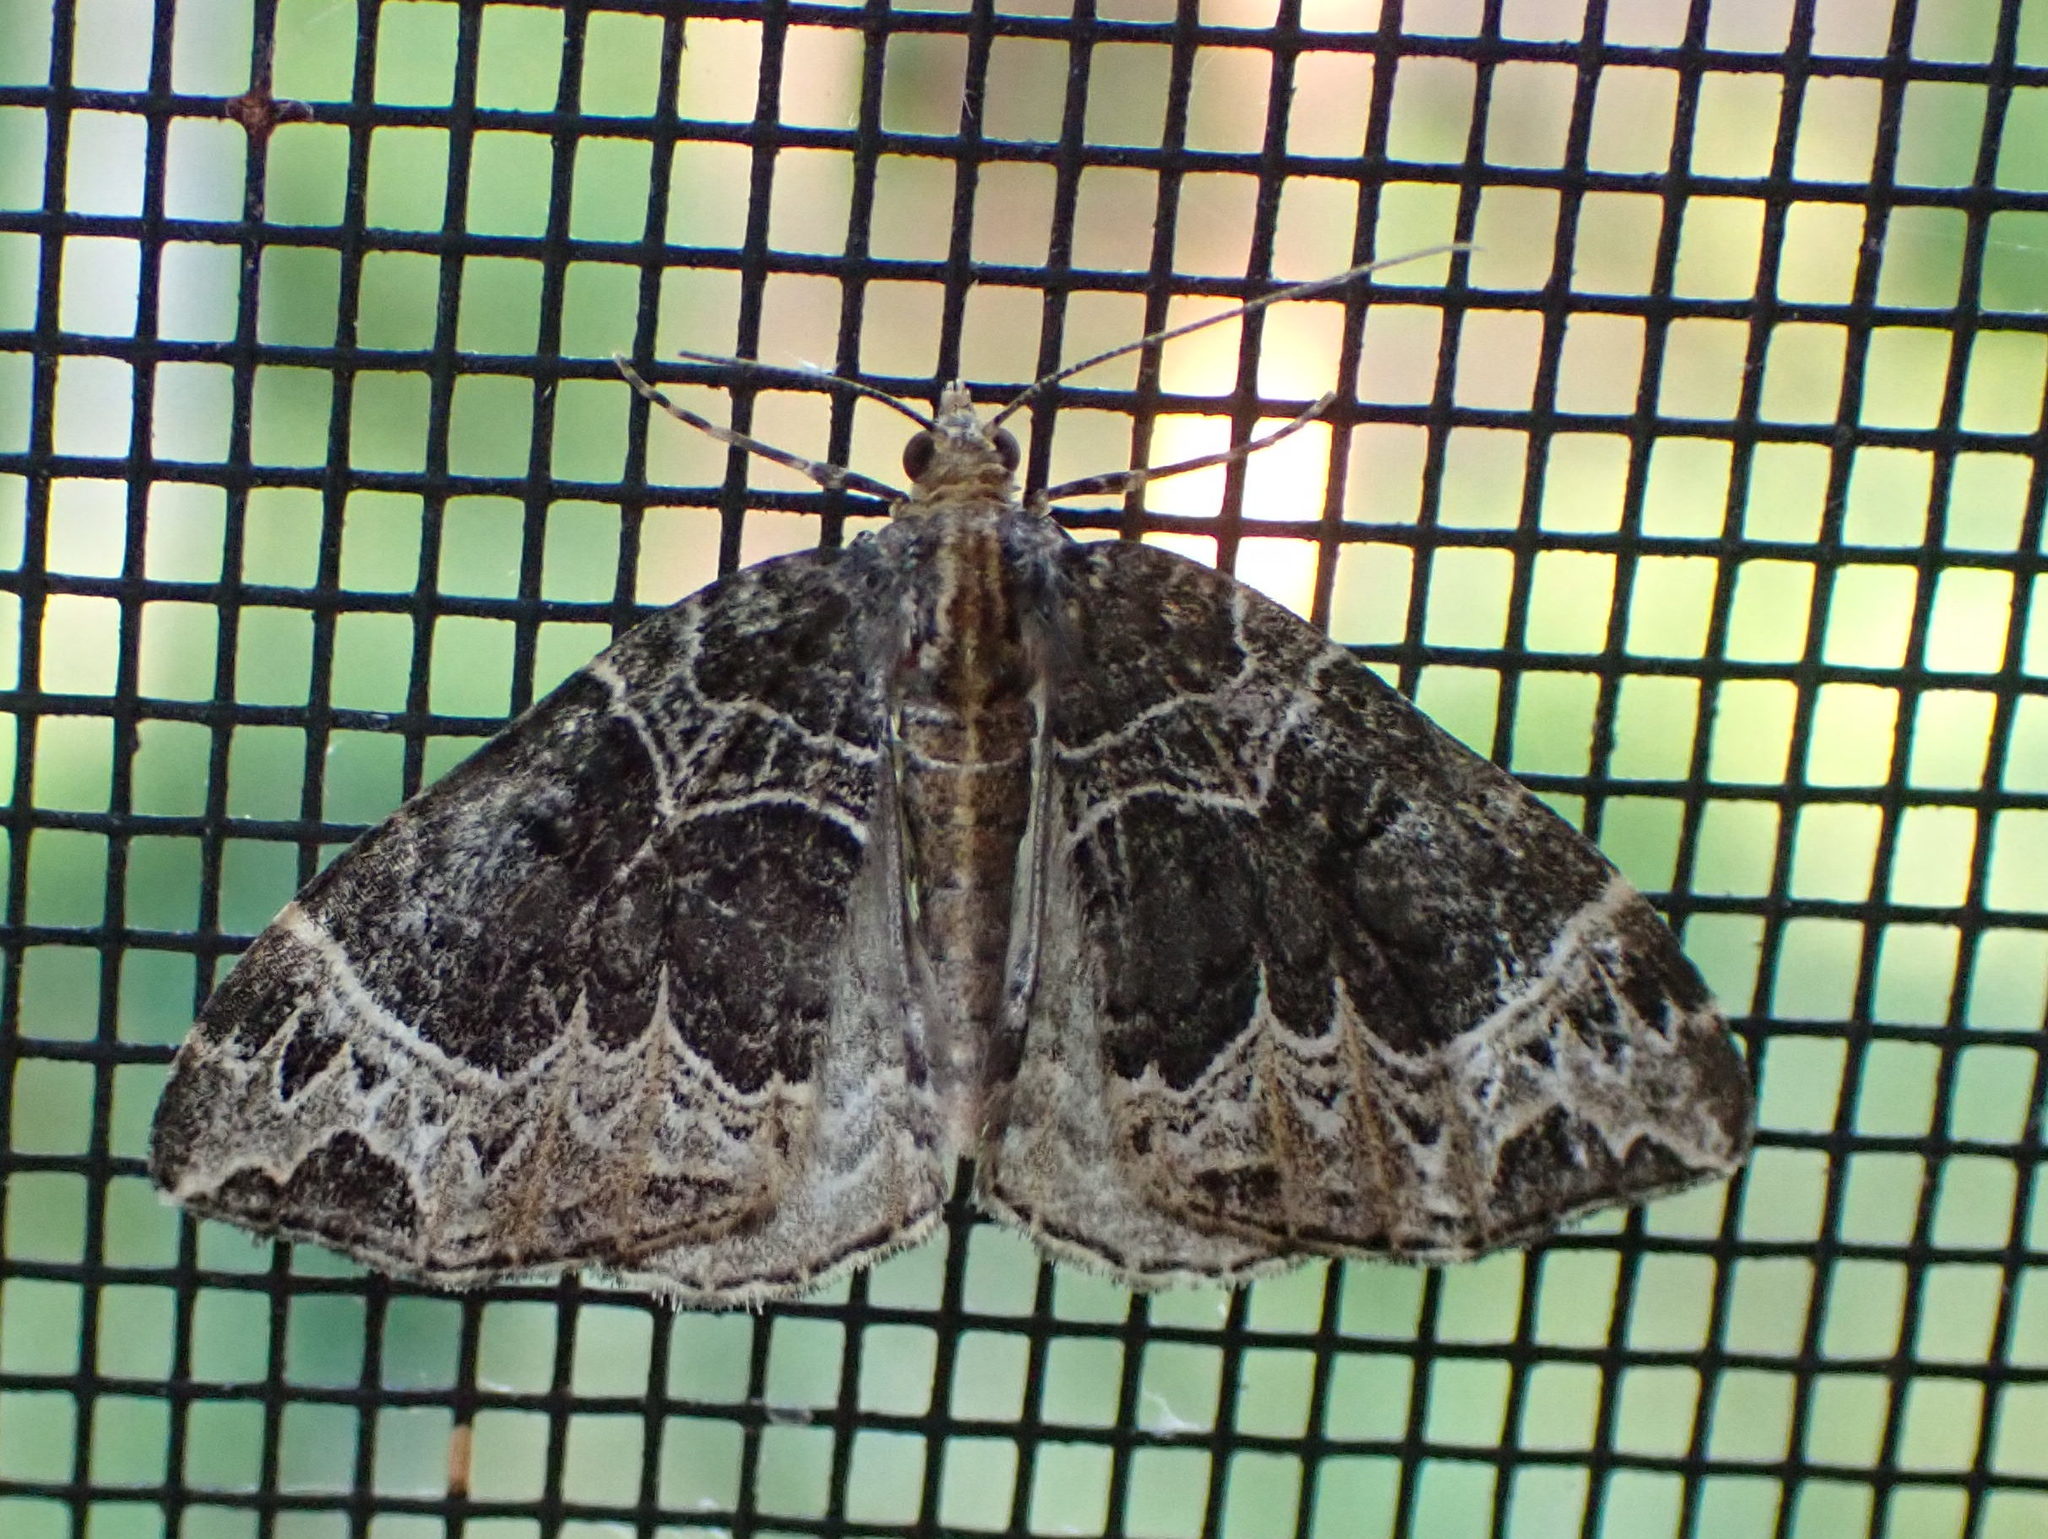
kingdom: Animalia
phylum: Arthropoda
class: Insecta
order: Lepidoptera
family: Geometridae
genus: Ecliptopera
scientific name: Ecliptopera silaceata
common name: Small phoenix
